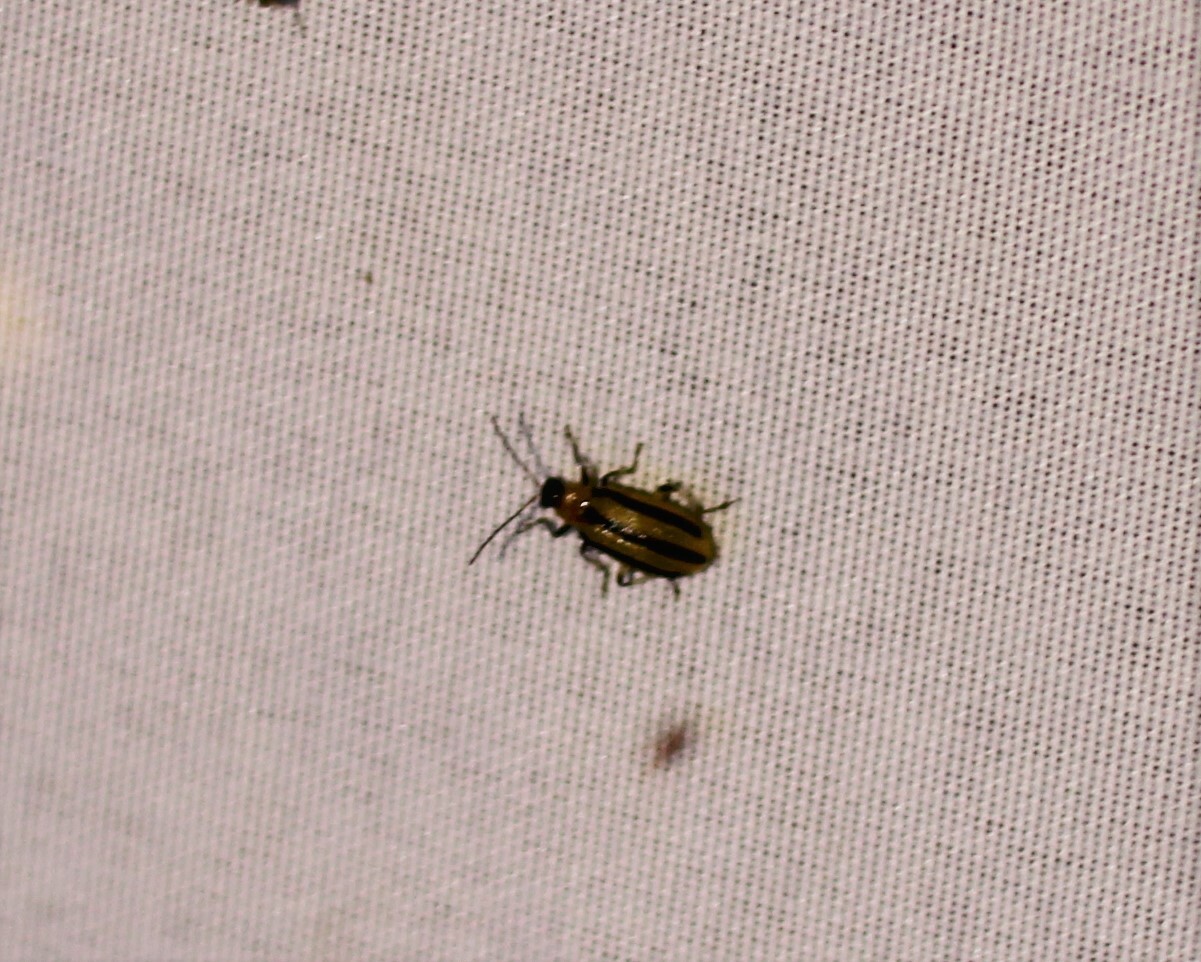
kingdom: Animalia
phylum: Arthropoda
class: Insecta
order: Coleoptera
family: Chrysomelidae
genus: Acalymma
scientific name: Acalymma vittatum
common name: Striped cucumber beetle
